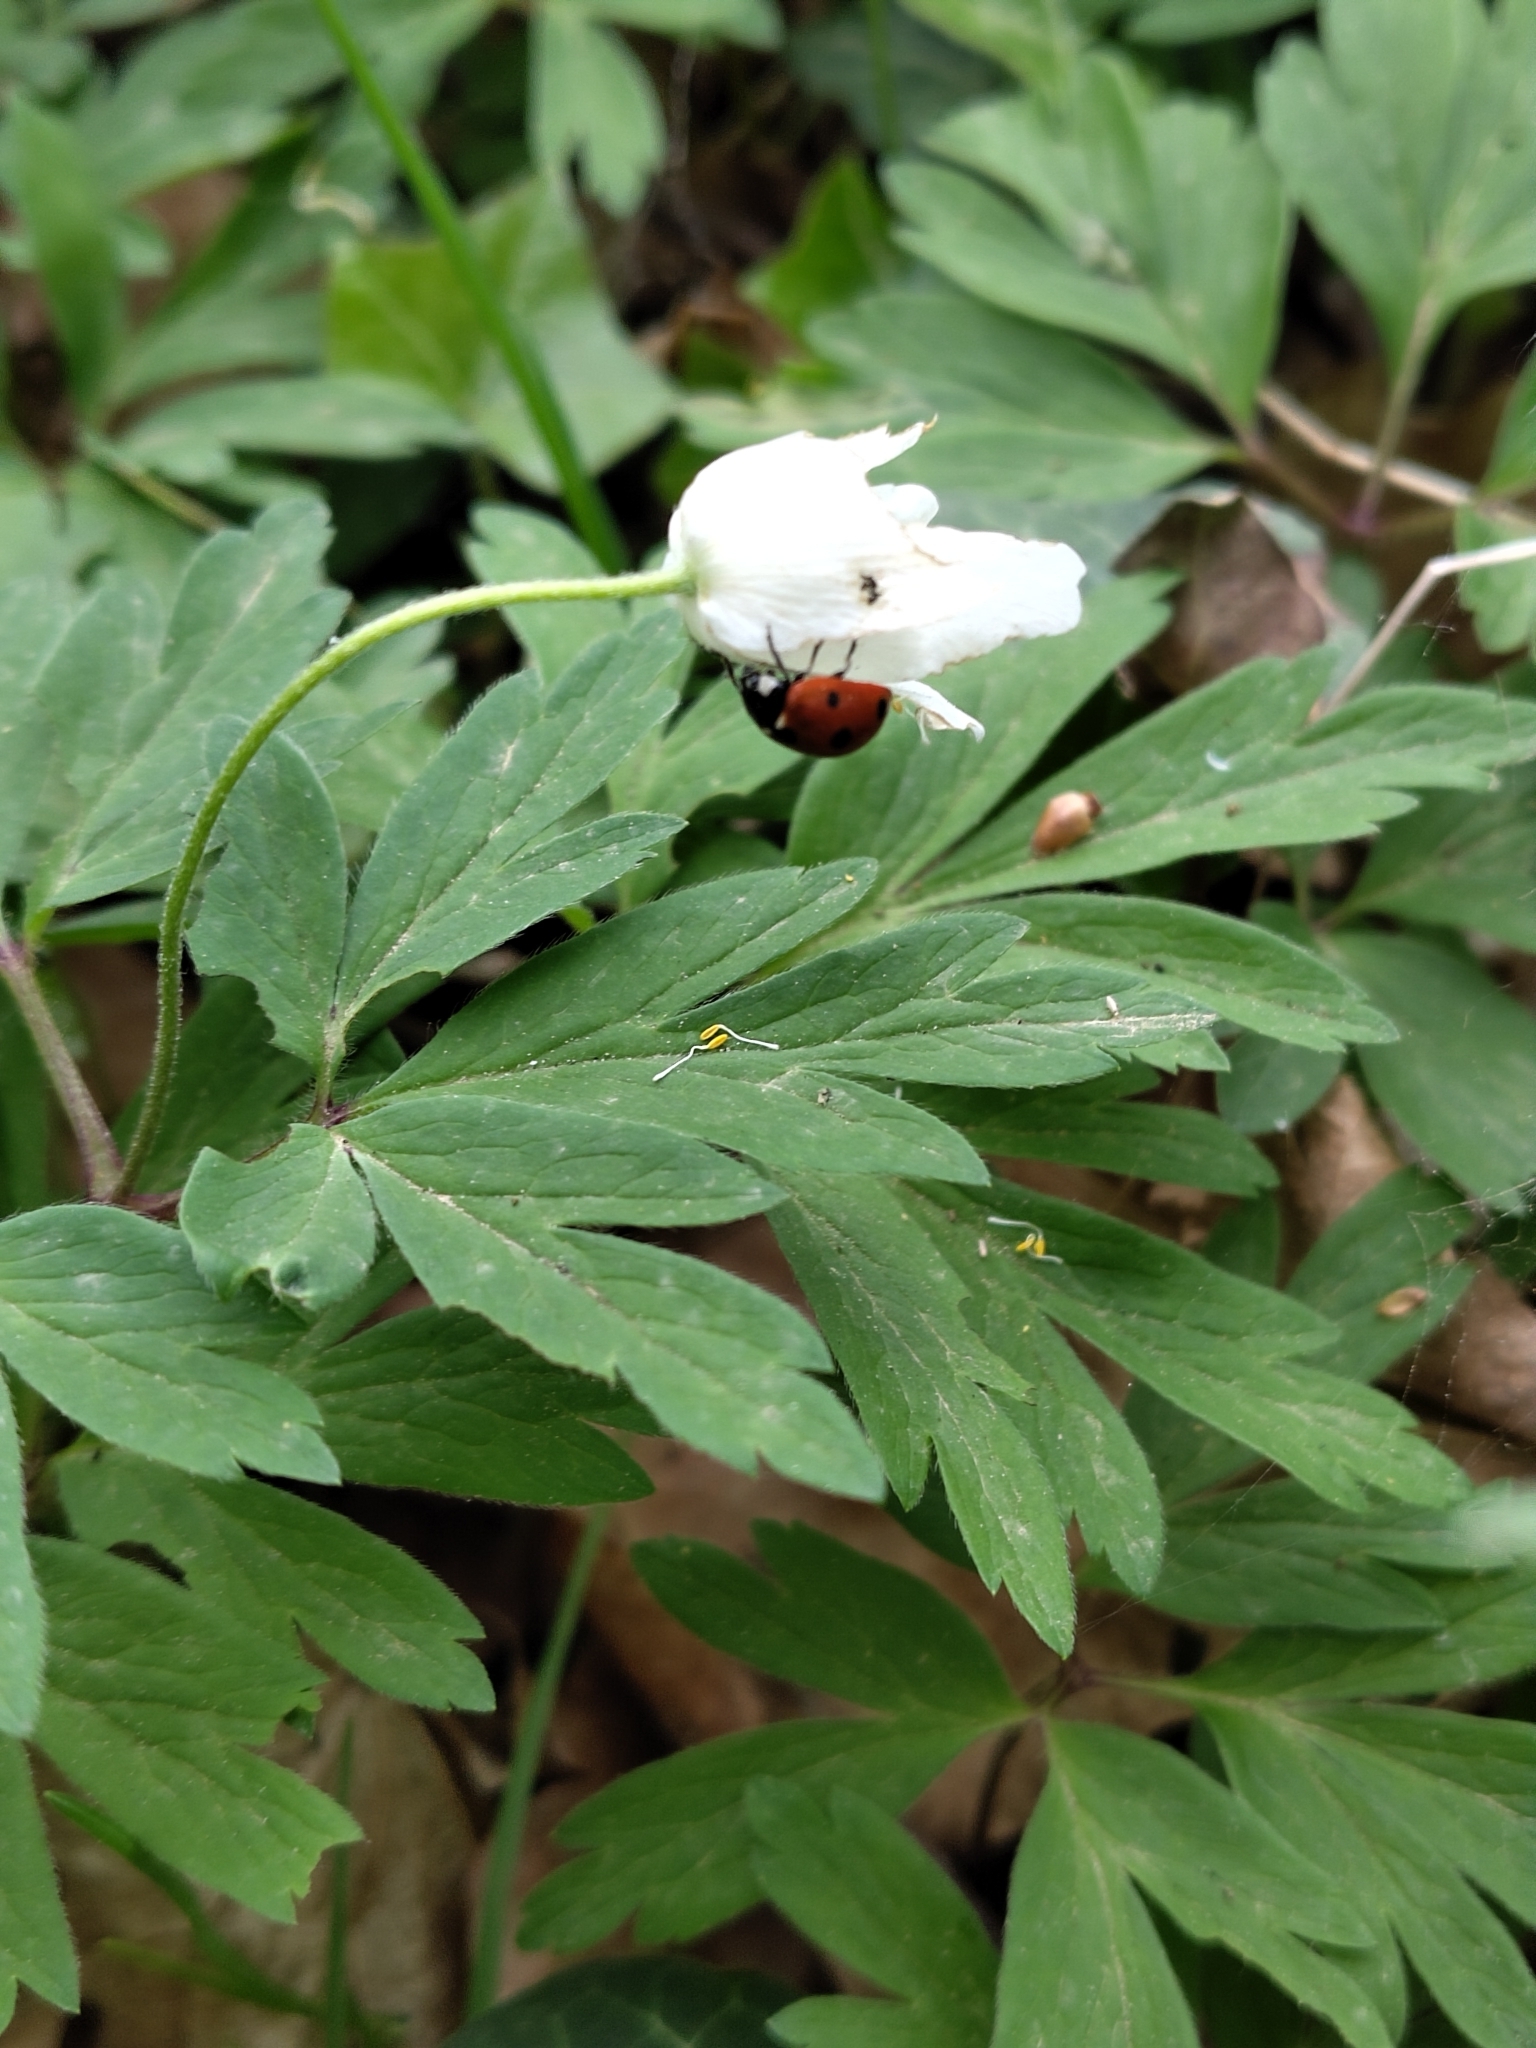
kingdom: Animalia
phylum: Arthropoda
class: Insecta
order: Coleoptera
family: Coccinellidae
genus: Coccinella
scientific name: Coccinella septempunctata
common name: Sevenspotted lady beetle
